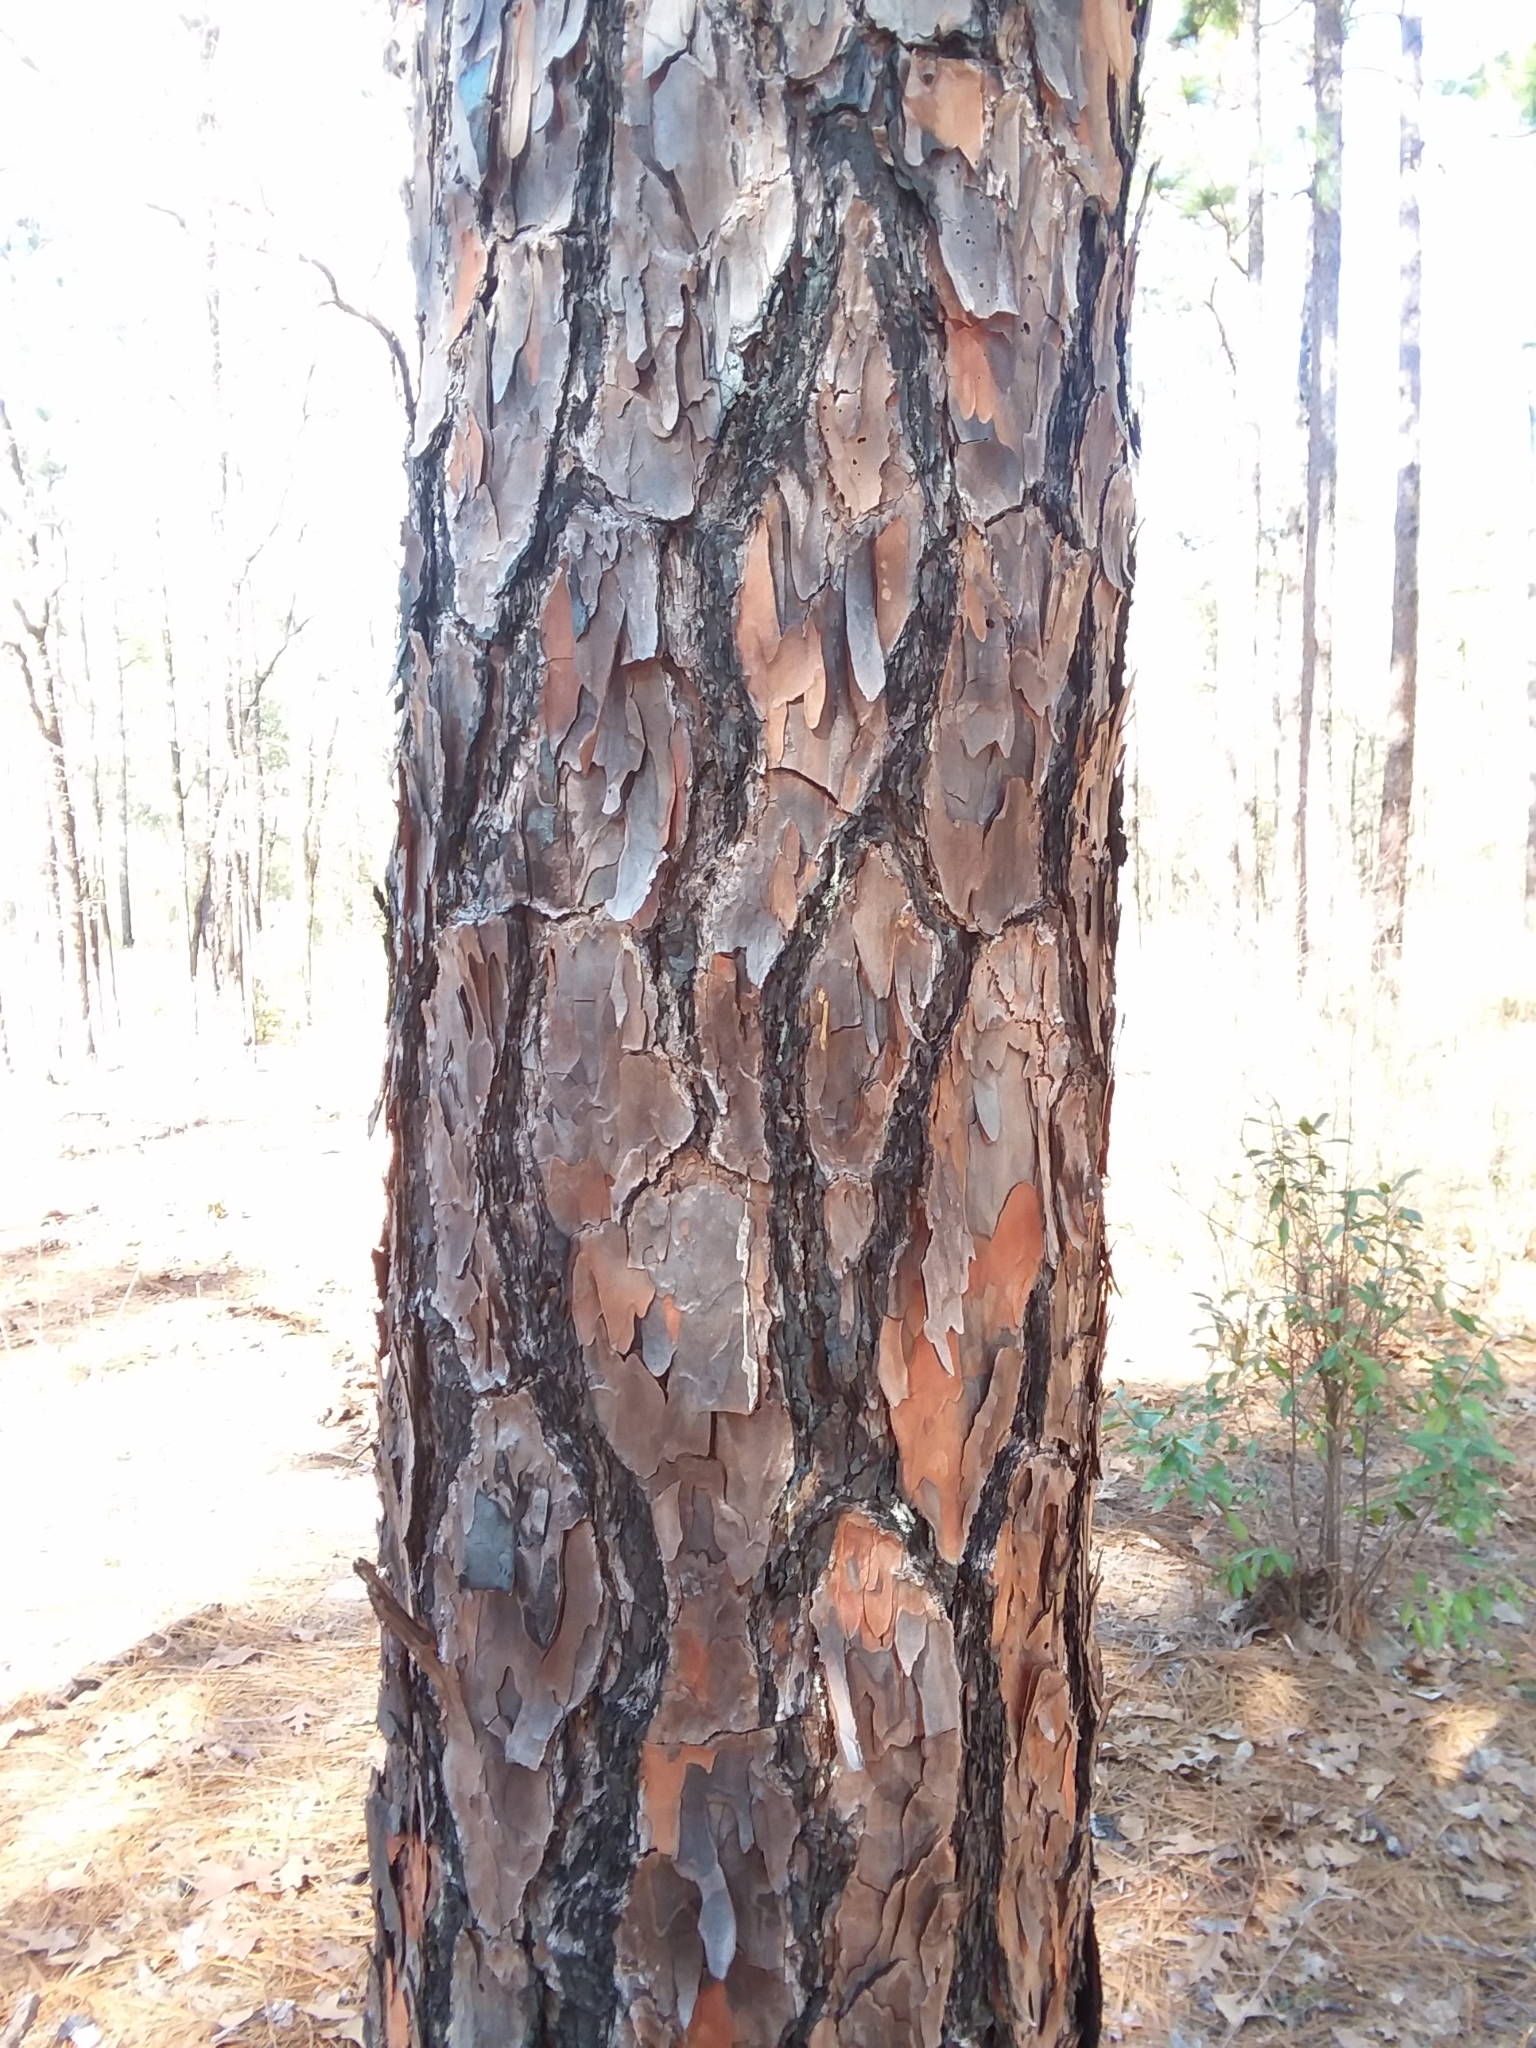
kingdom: Plantae
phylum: Tracheophyta
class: Pinopsida
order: Pinales
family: Pinaceae
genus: Pinus
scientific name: Pinus palustris
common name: Longleaf pine
